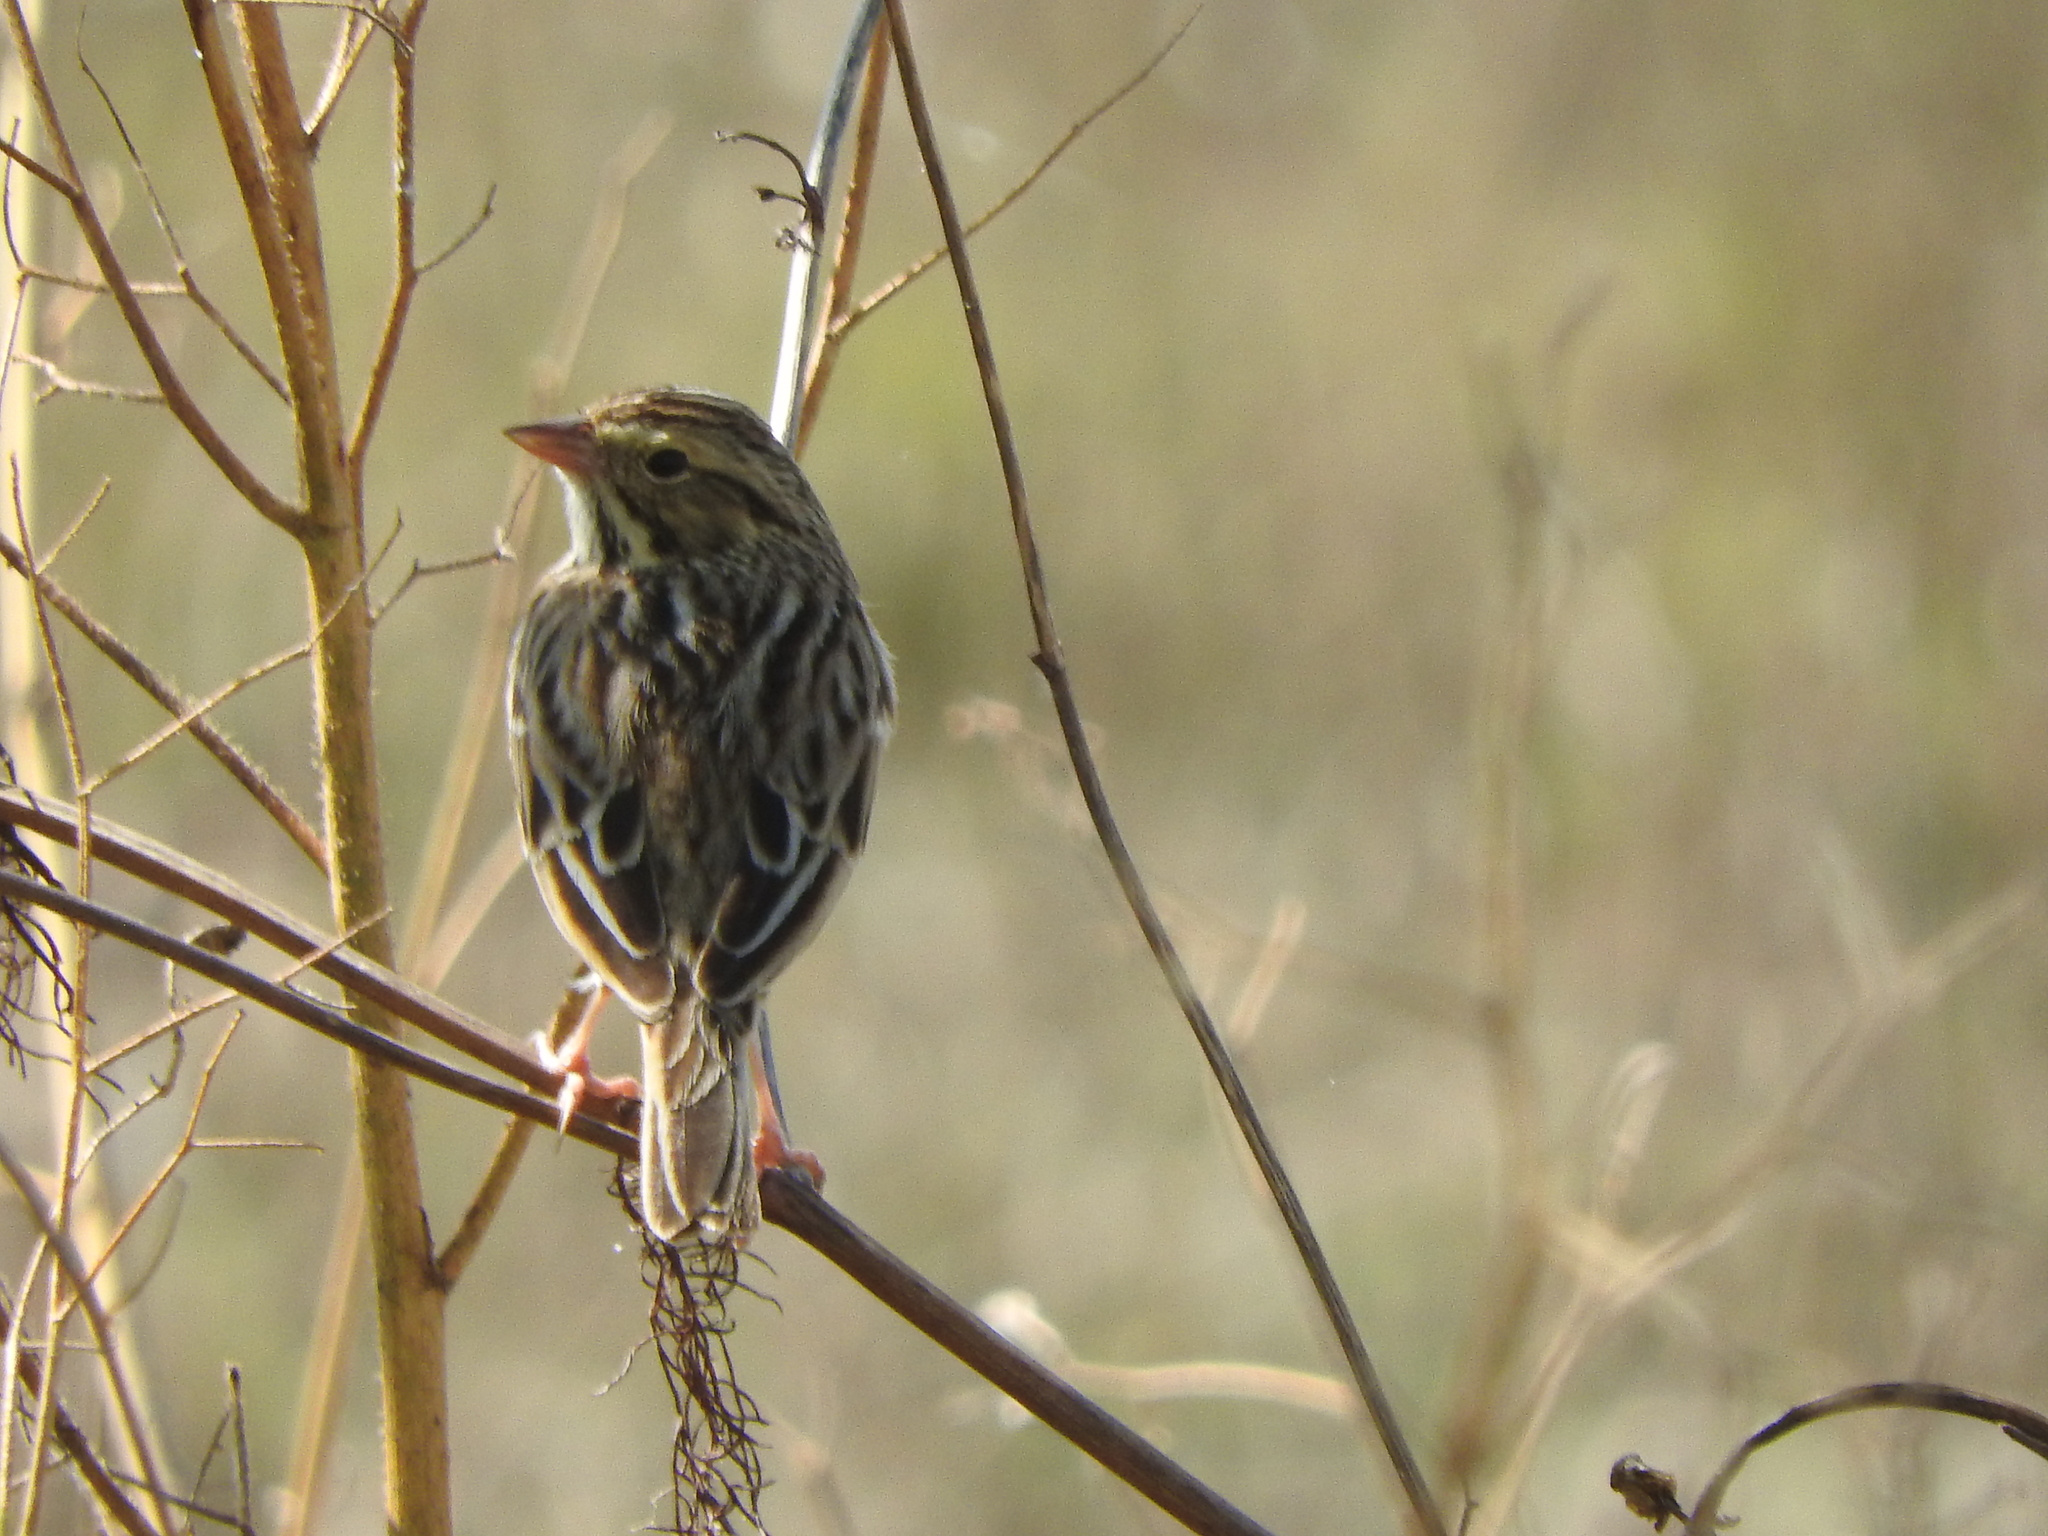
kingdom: Animalia
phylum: Chordata
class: Aves
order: Passeriformes
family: Passerellidae
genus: Passerculus
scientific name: Passerculus sandwichensis
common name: Savannah sparrow
